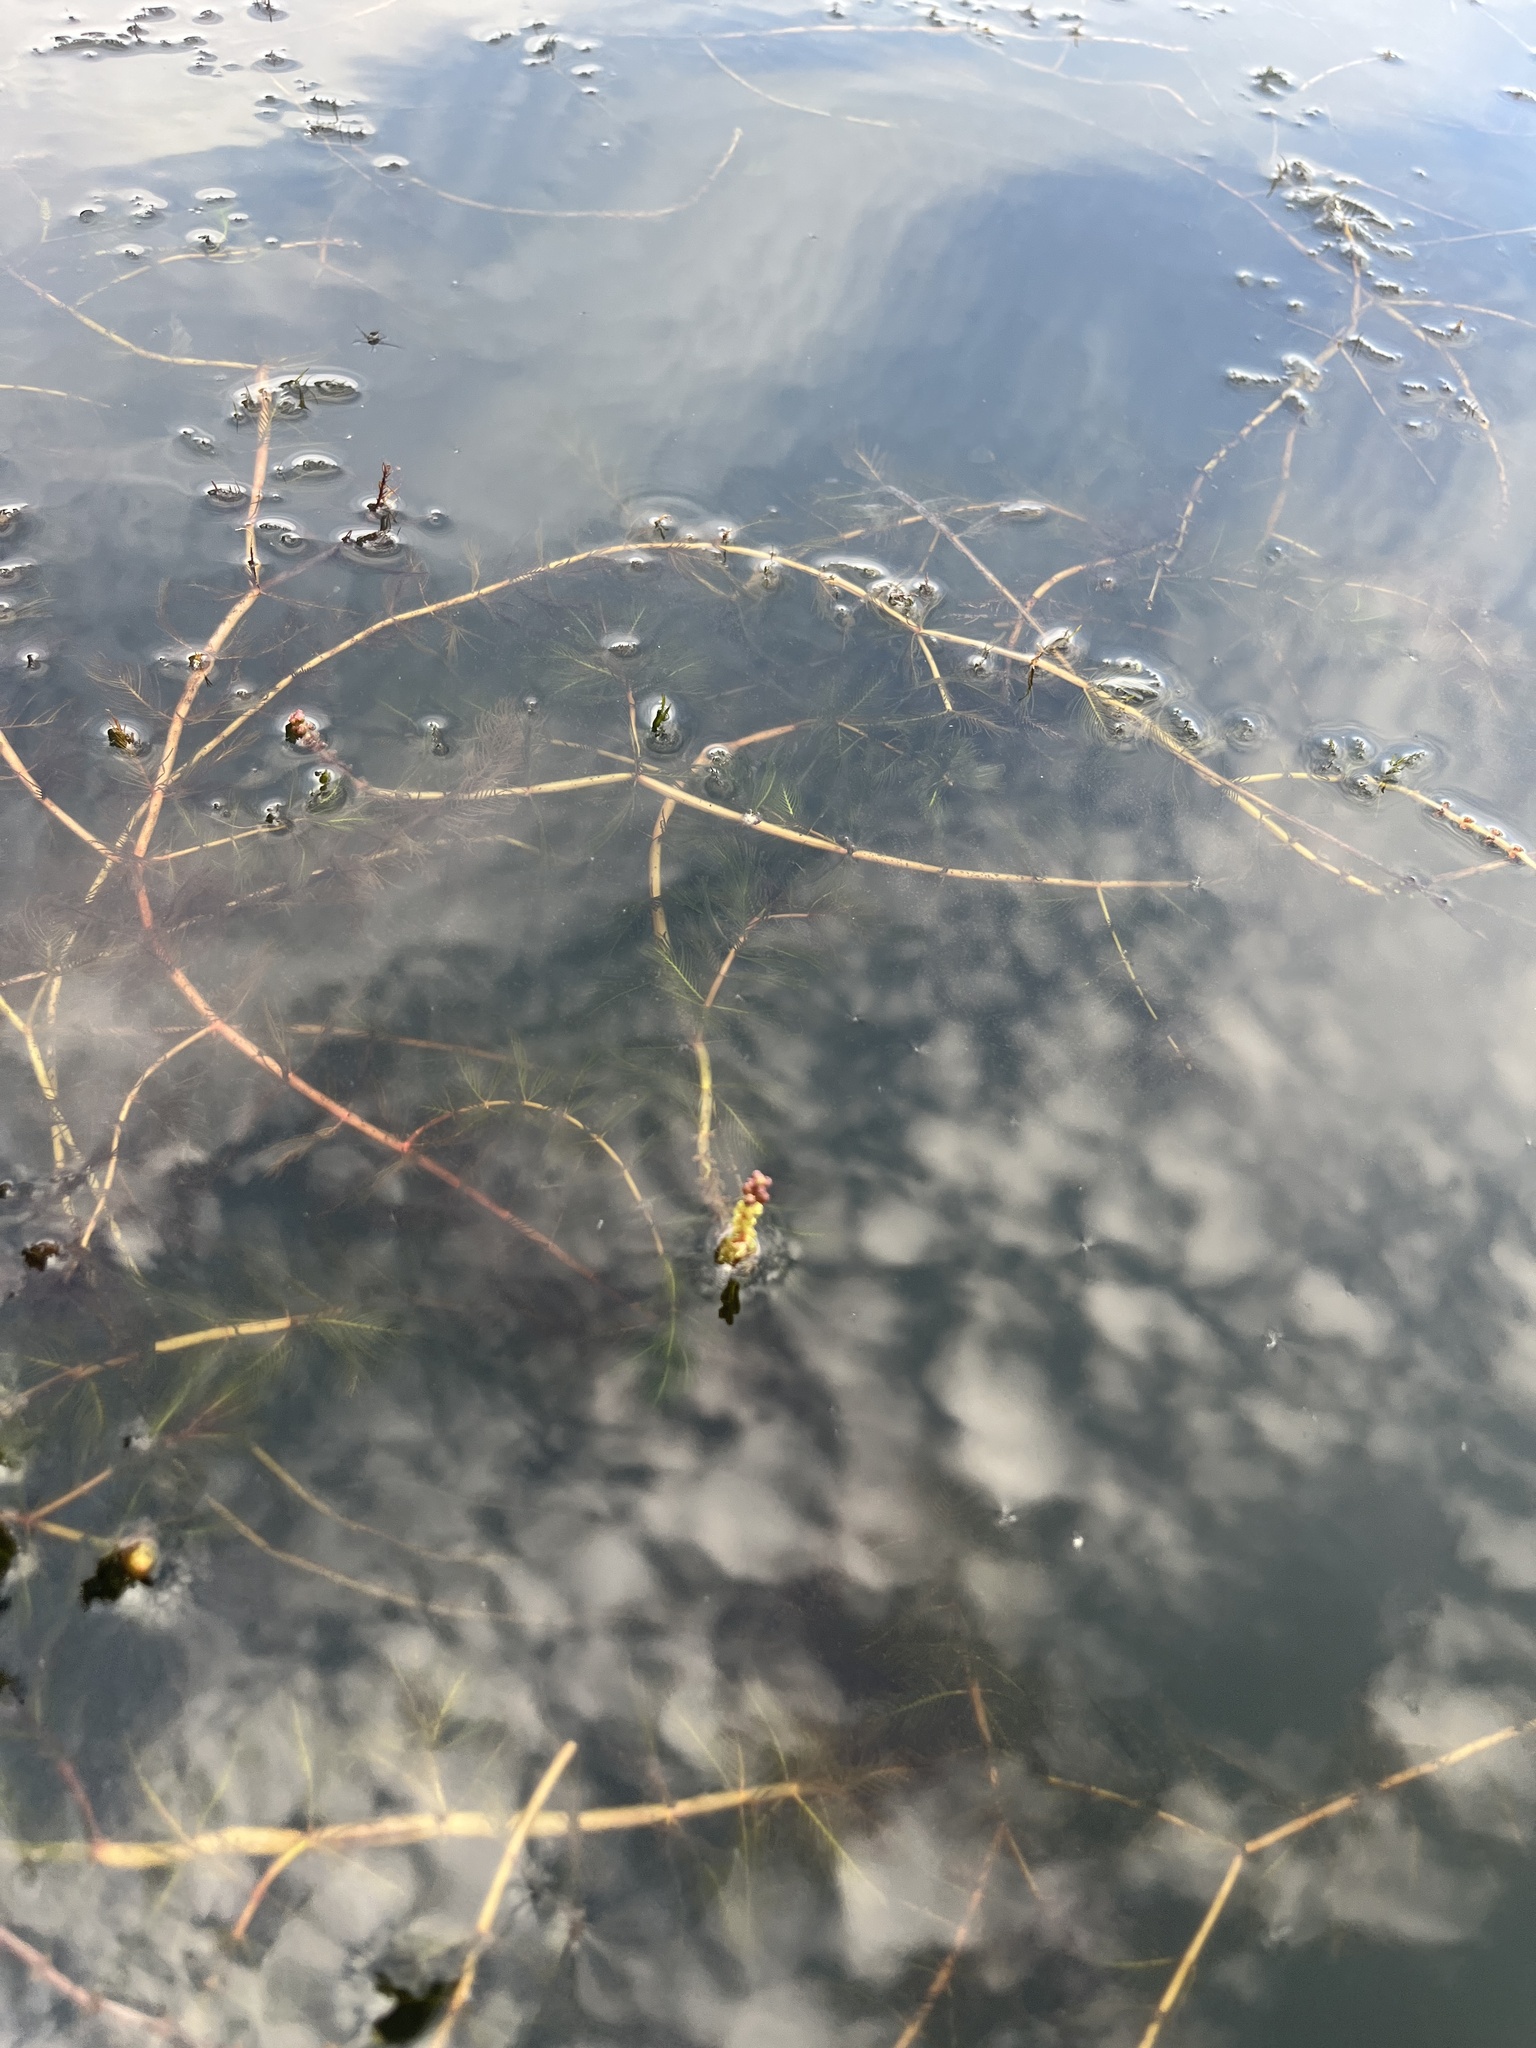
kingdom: Plantae
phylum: Tracheophyta
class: Magnoliopsida
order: Saxifragales
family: Haloragaceae
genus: Myriophyllum
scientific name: Myriophyllum spicatum
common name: Spiked water-milfoil
